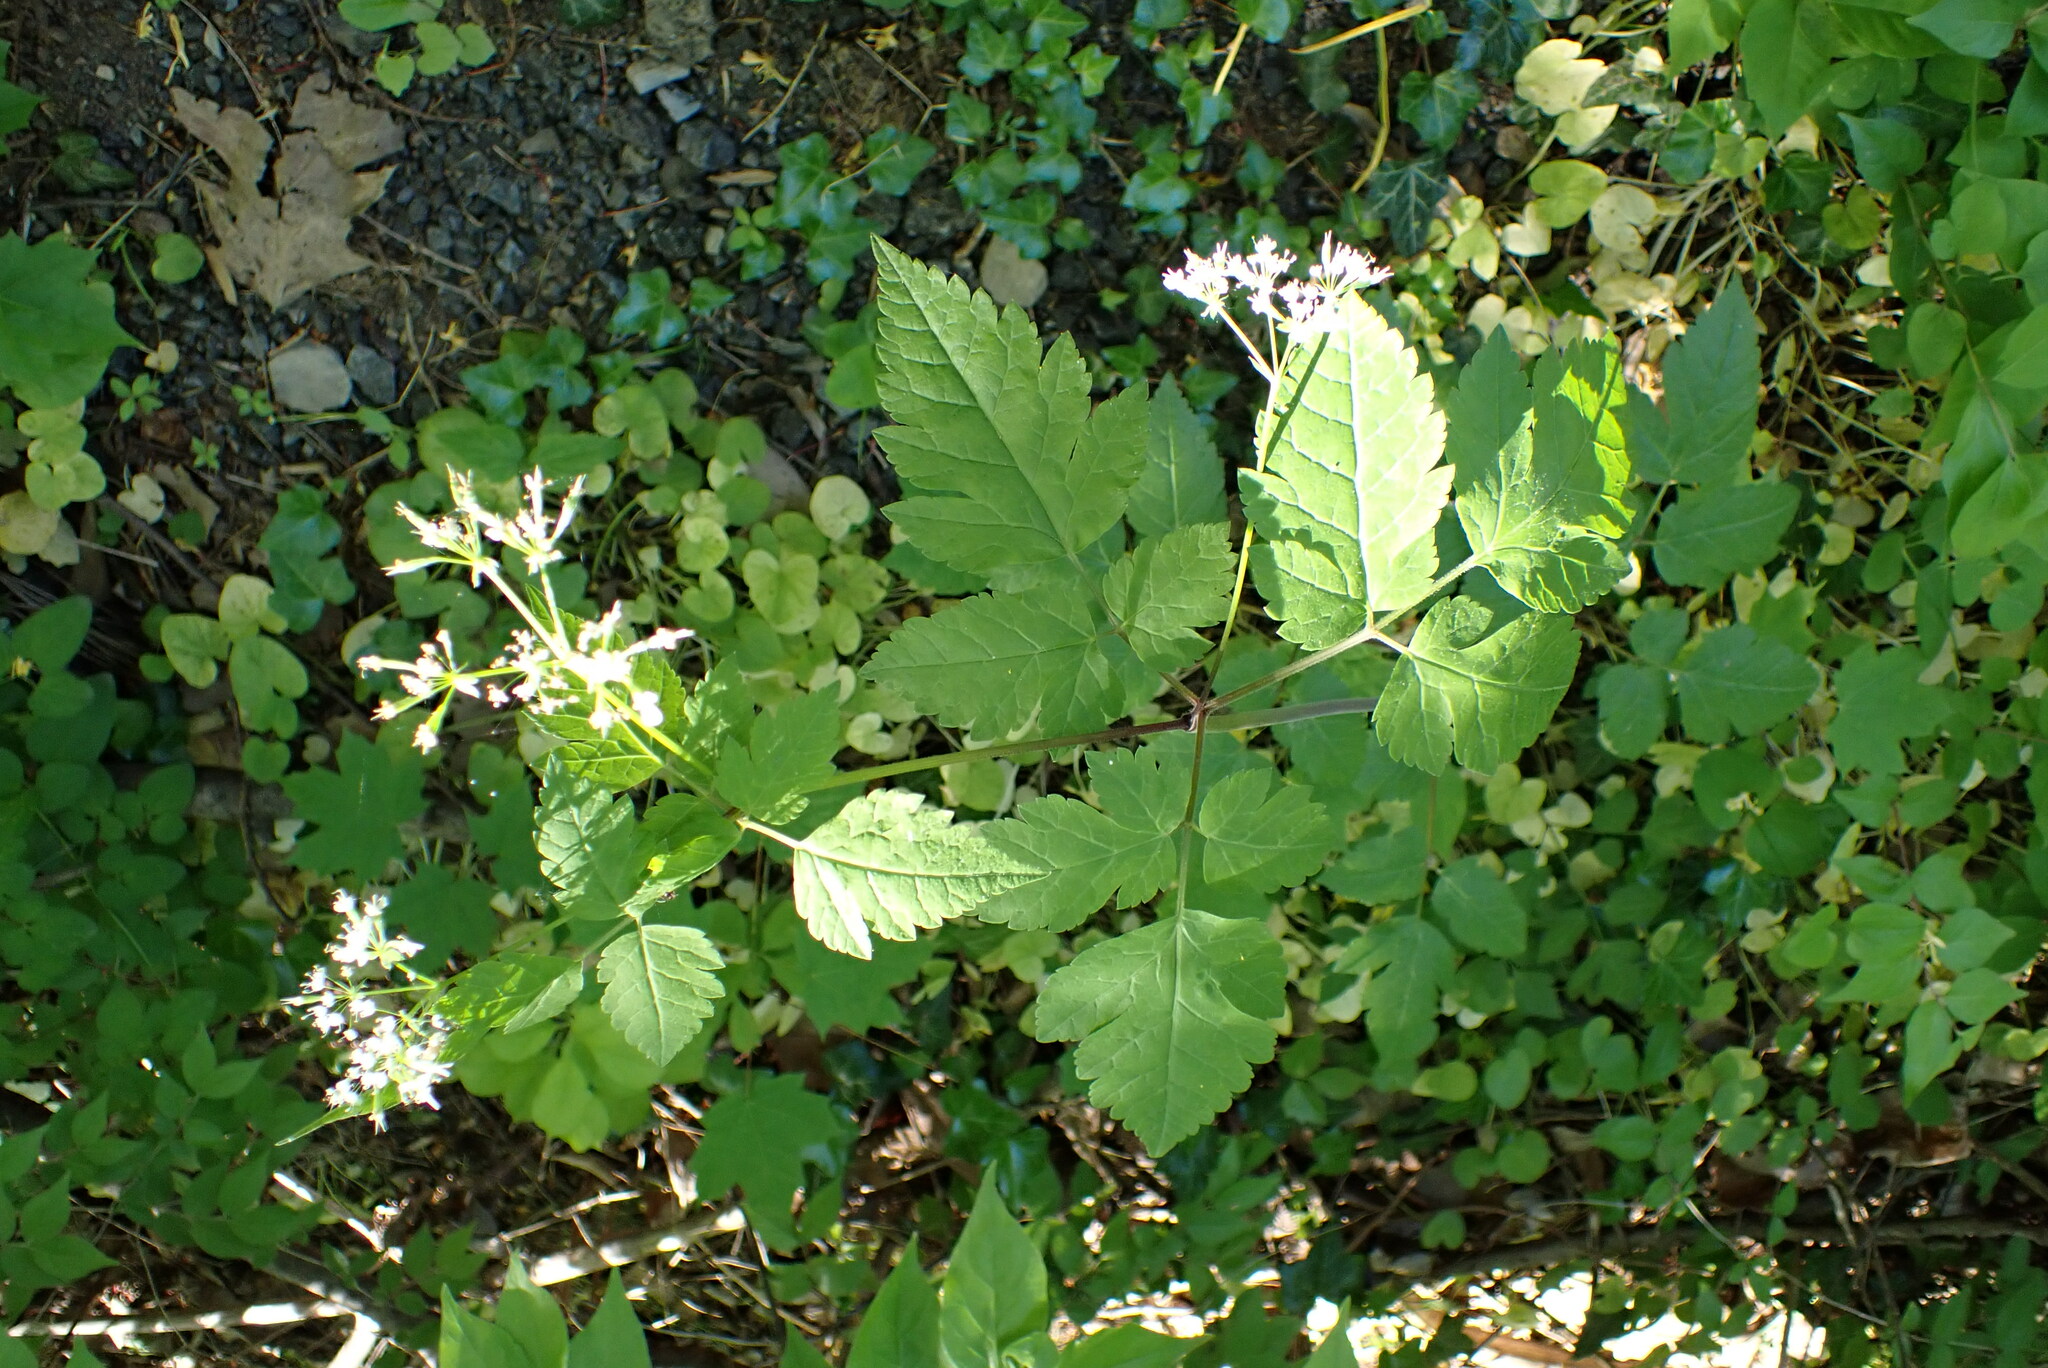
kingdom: Plantae
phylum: Tracheophyta
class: Magnoliopsida
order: Apiales
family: Apiaceae
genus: Osmorhiza
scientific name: Osmorhiza longistylis
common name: Smooth sweet cicely
